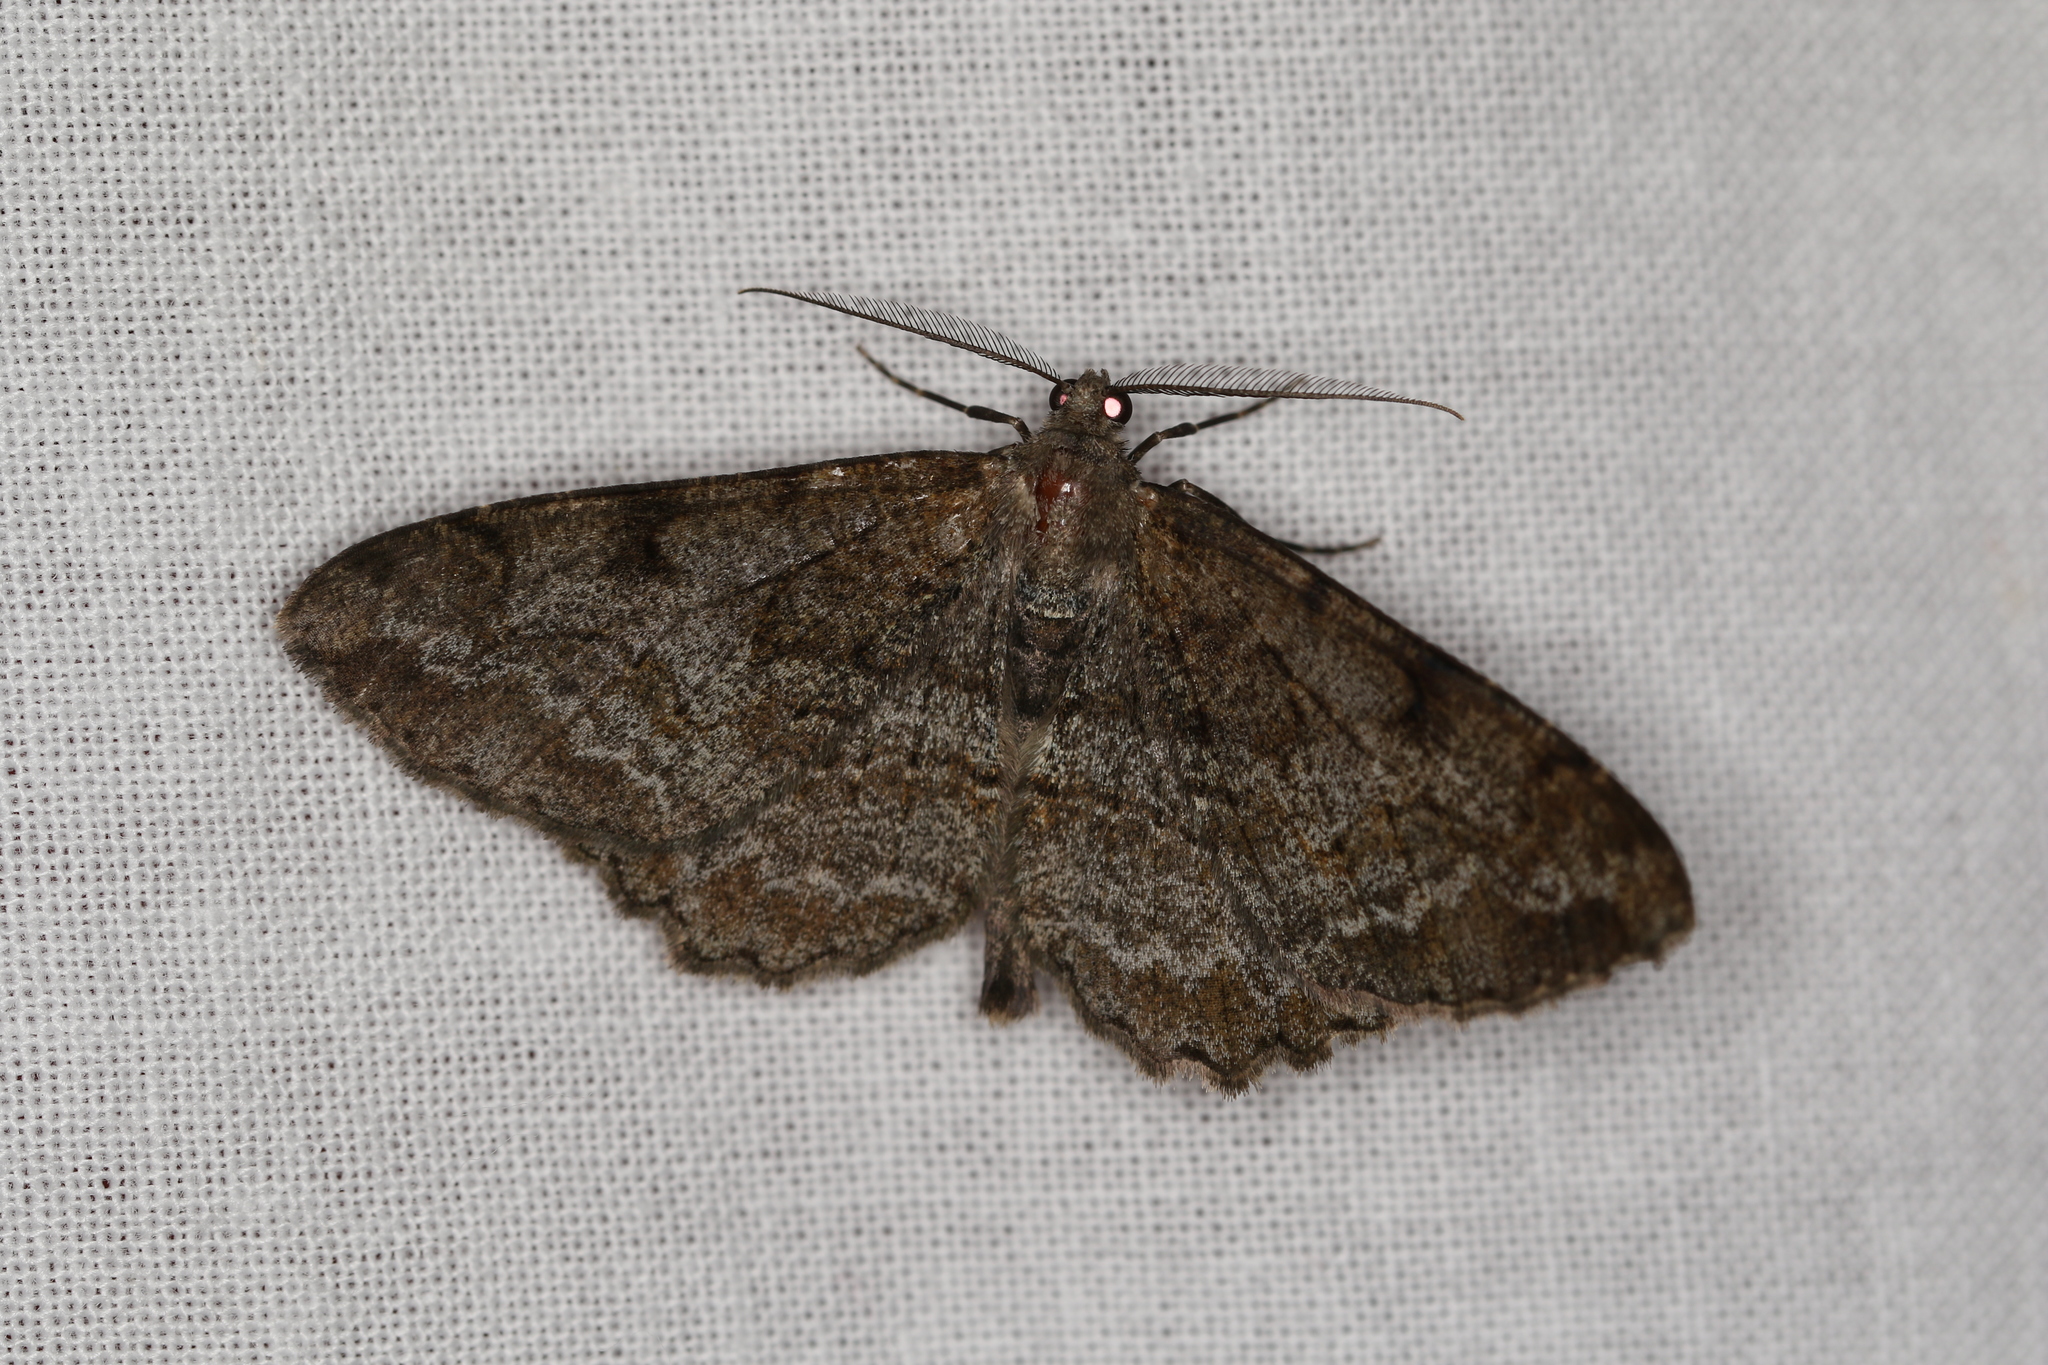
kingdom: Animalia
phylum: Arthropoda
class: Insecta
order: Lepidoptera
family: Geometridae
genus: Alcis
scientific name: Alcis repandata
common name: Mottled beauty
